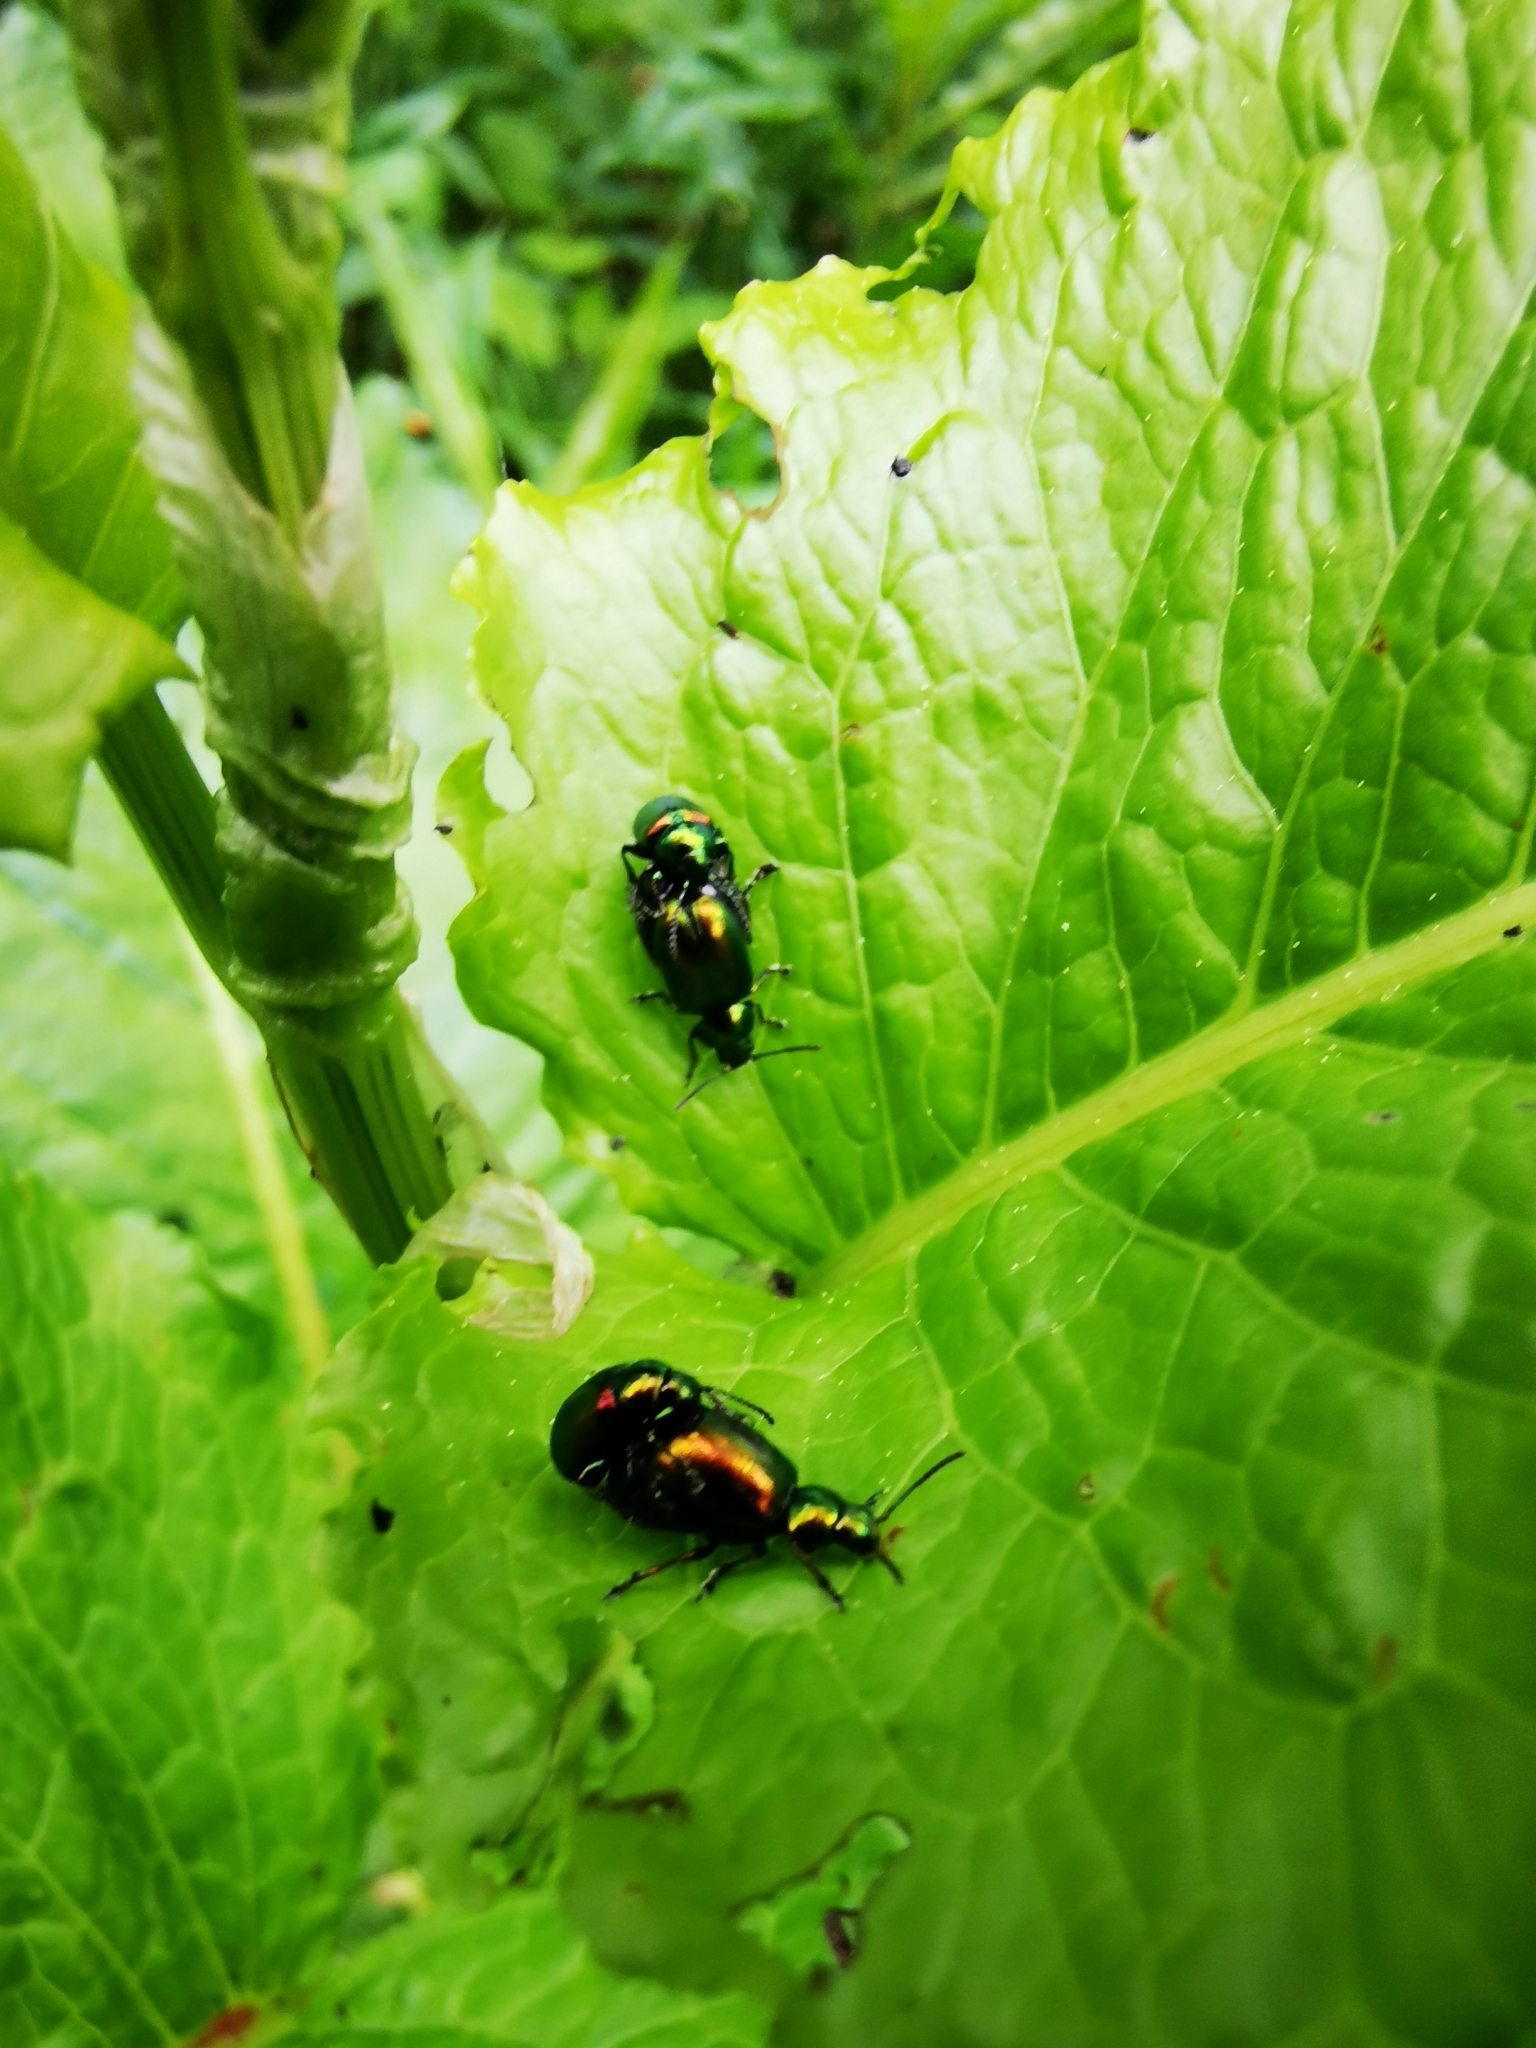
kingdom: Animalia
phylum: Arthropoda
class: Insecta
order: Coleoptera
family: Chrysomelidae
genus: Gastrophysa
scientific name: Gastrophysa viridula
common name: Green dock beetle
